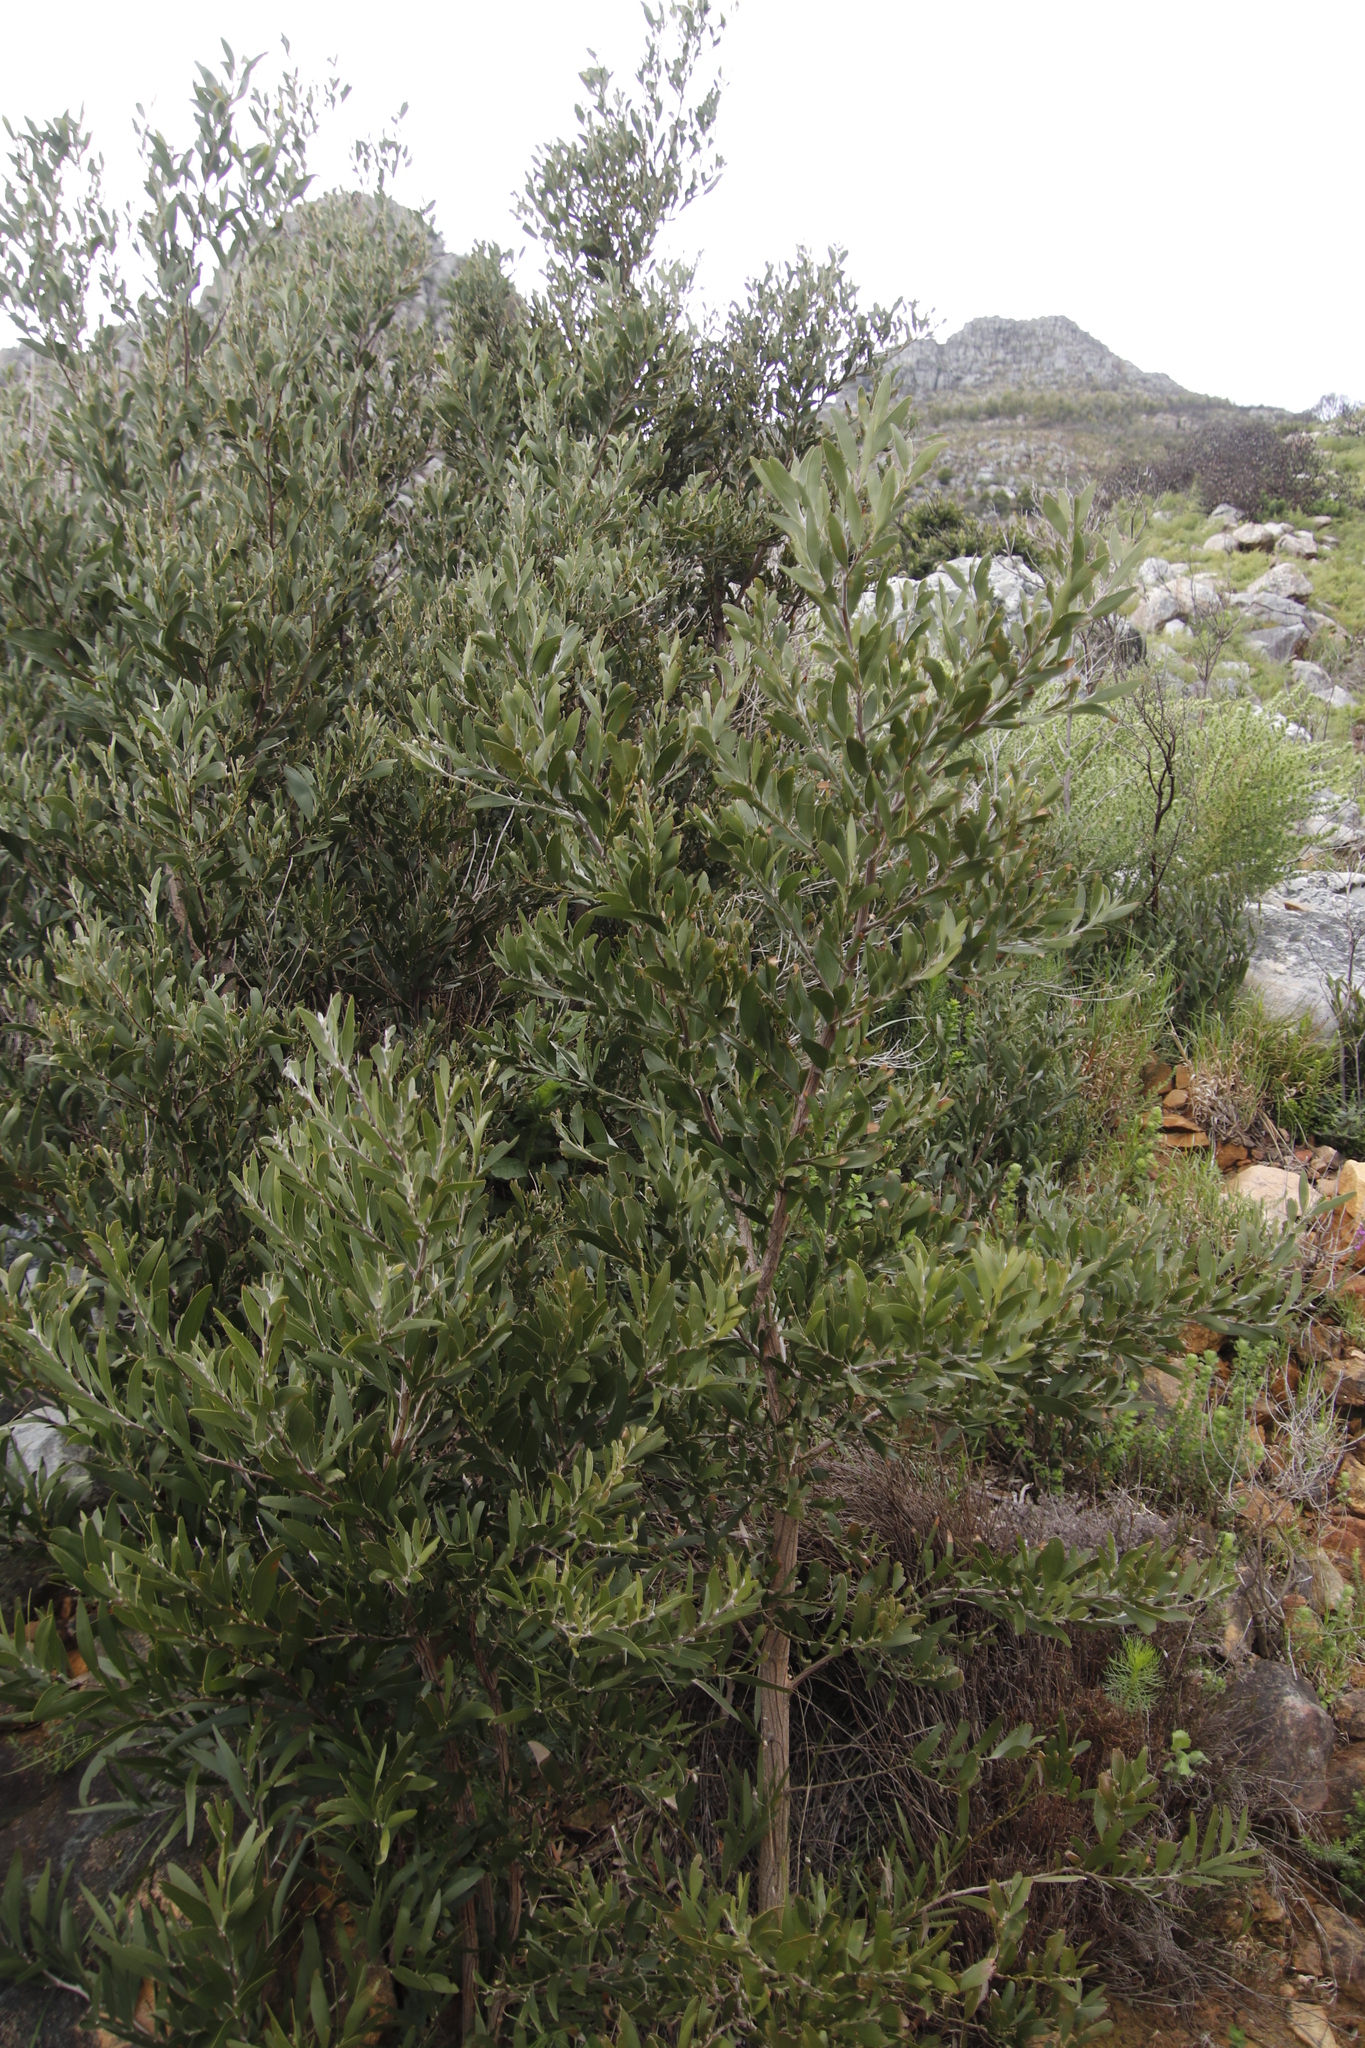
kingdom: Plantae
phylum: Tracheophyta
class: Magnoliopsida
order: Fabales
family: Fabaceae
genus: Acacia
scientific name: Acacia melanoxylon
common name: Blackwood
